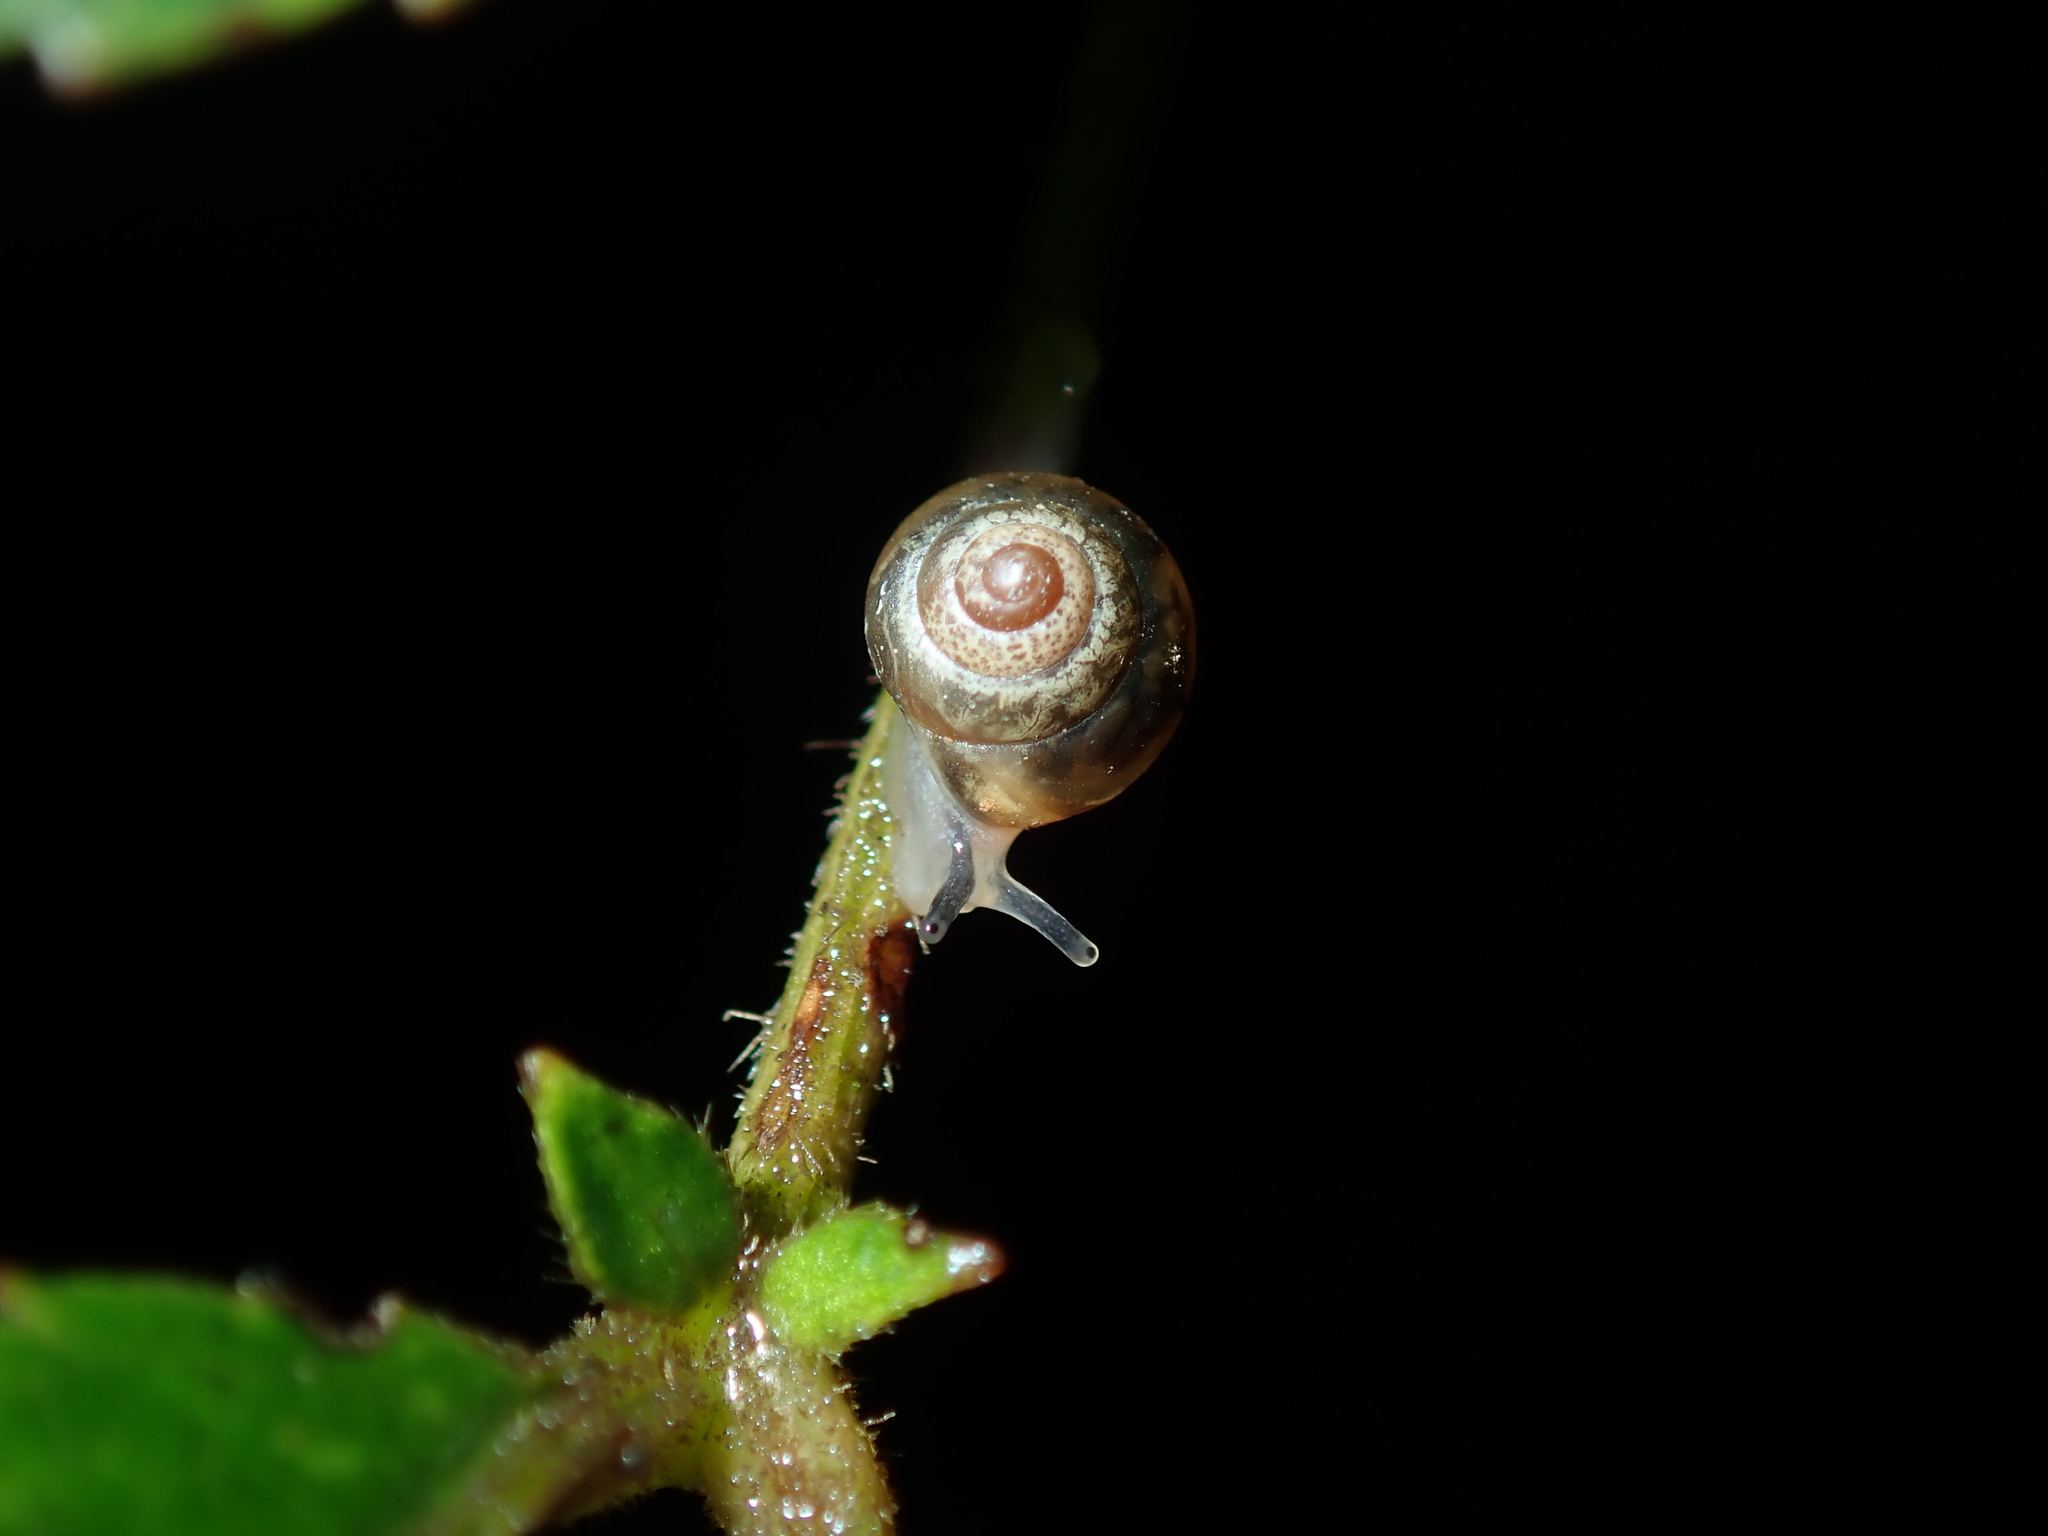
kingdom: Animalia
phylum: Mollusca
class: Gastropoda
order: Stylommatophora
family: Euconulidae
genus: Coneuplecta
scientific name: Coneuplecta calculosa
